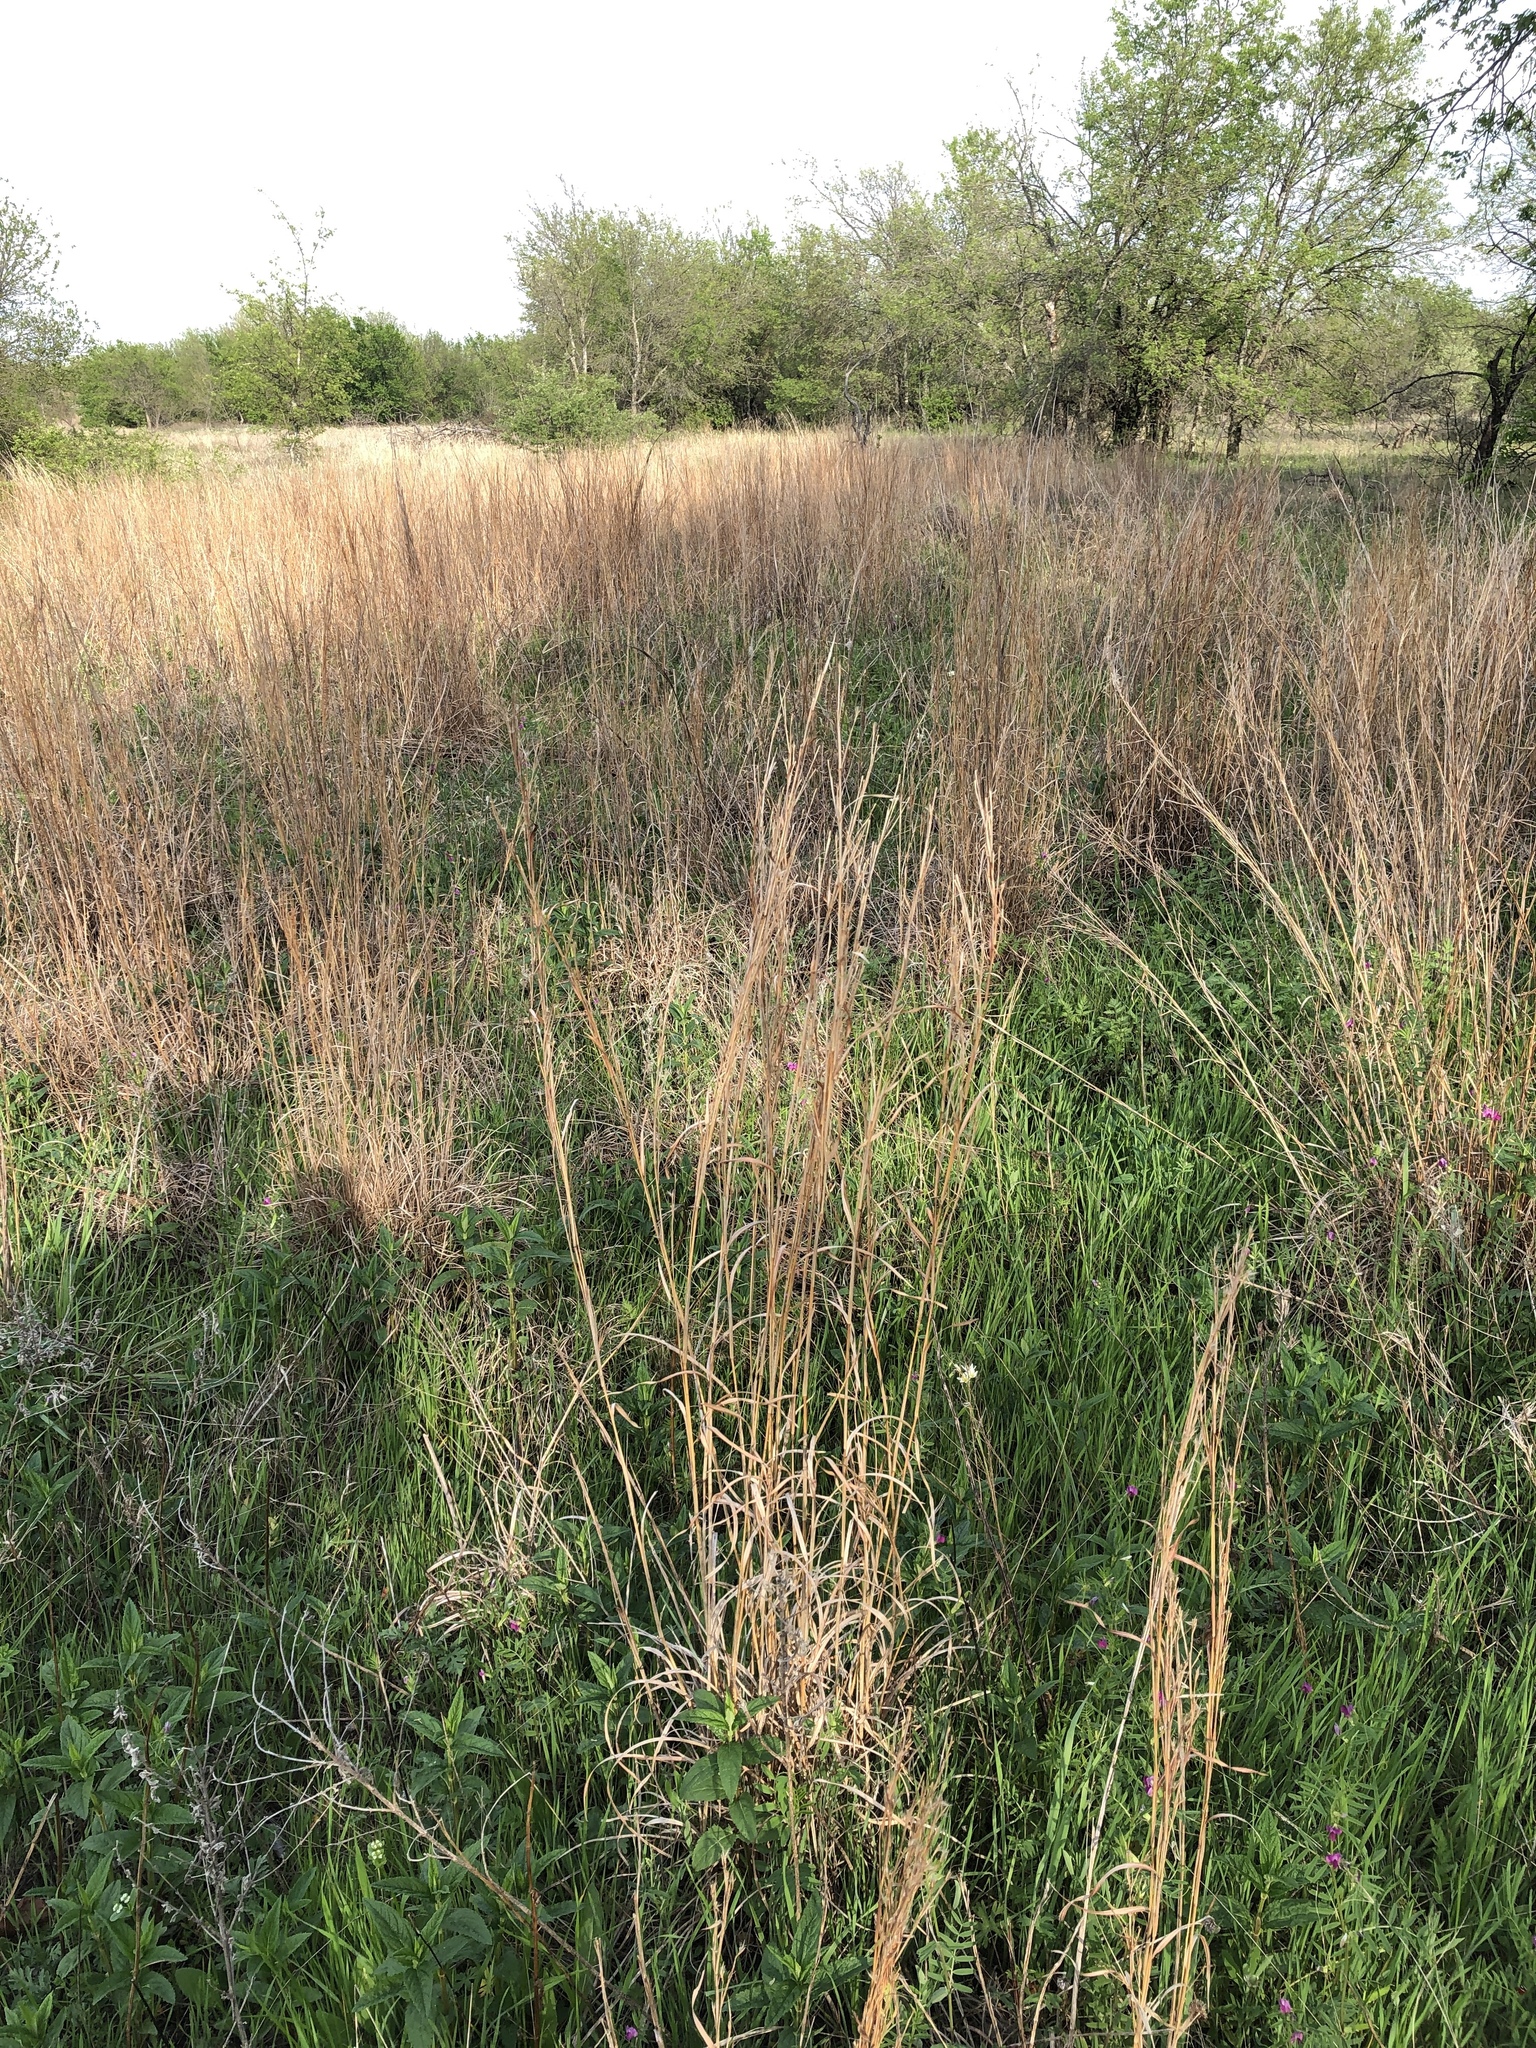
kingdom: Plantae
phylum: Tracheophyta
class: Liliopsida
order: Poales
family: Poaceae
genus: Schizachyrium
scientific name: Schizachyrium scoparium
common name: Little bluestem
